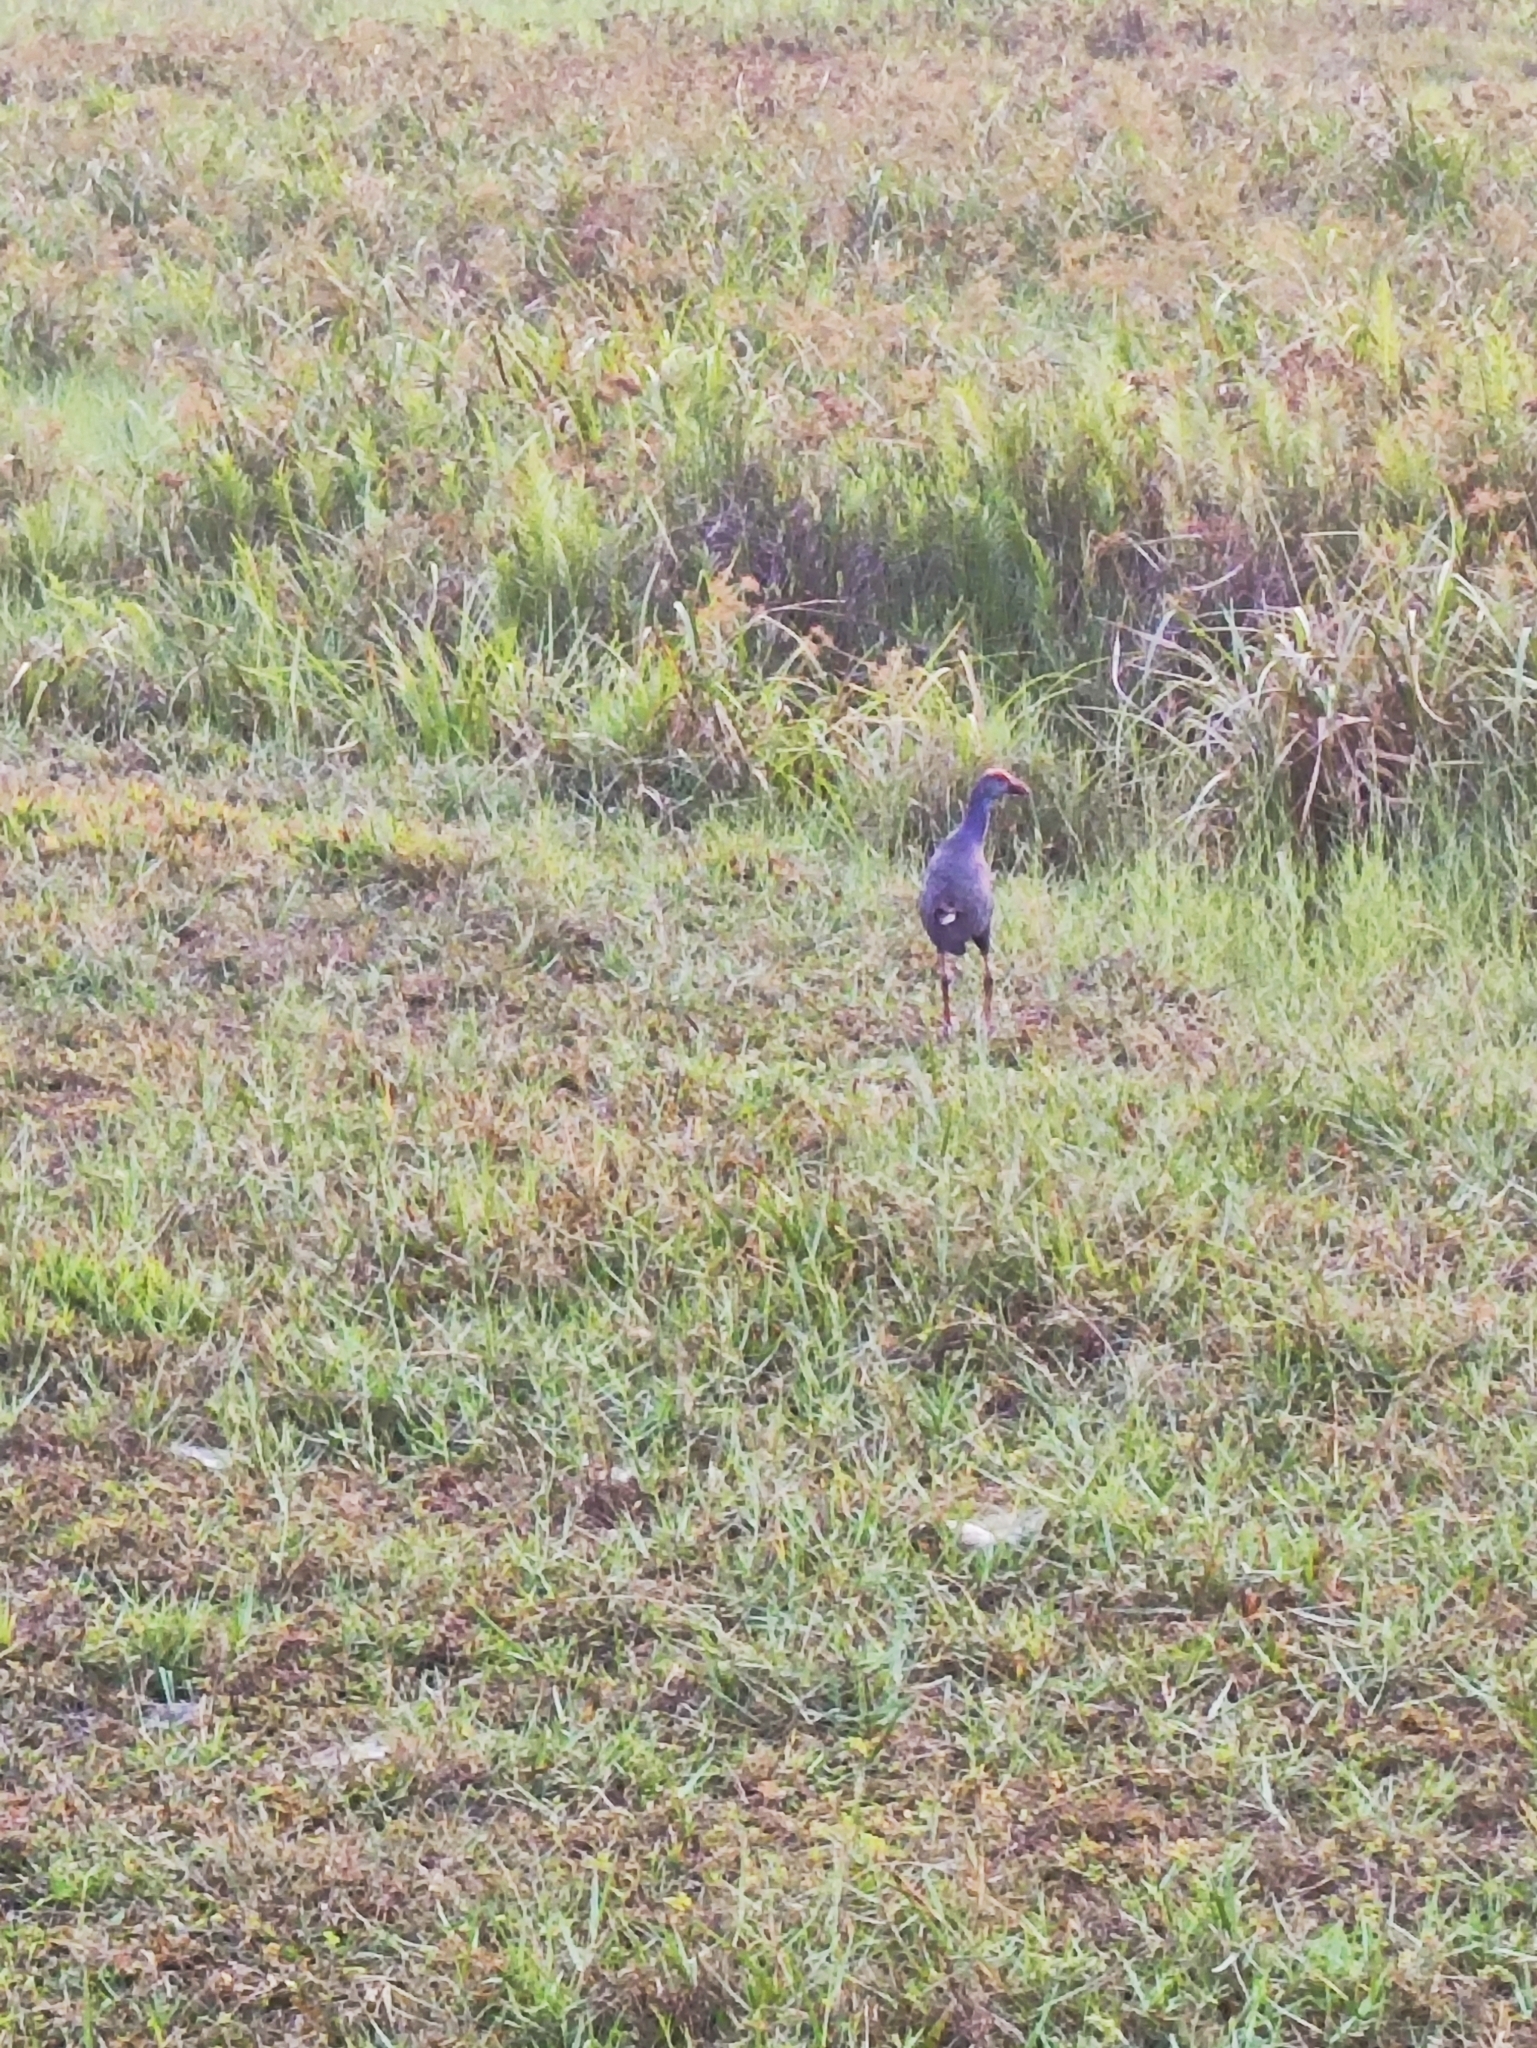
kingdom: Animalia
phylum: Chordata
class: Aves
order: Gruiformes
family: Rallidae
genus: Porphyrio
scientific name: Porphyrio porphyrio
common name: Purple swamphen
